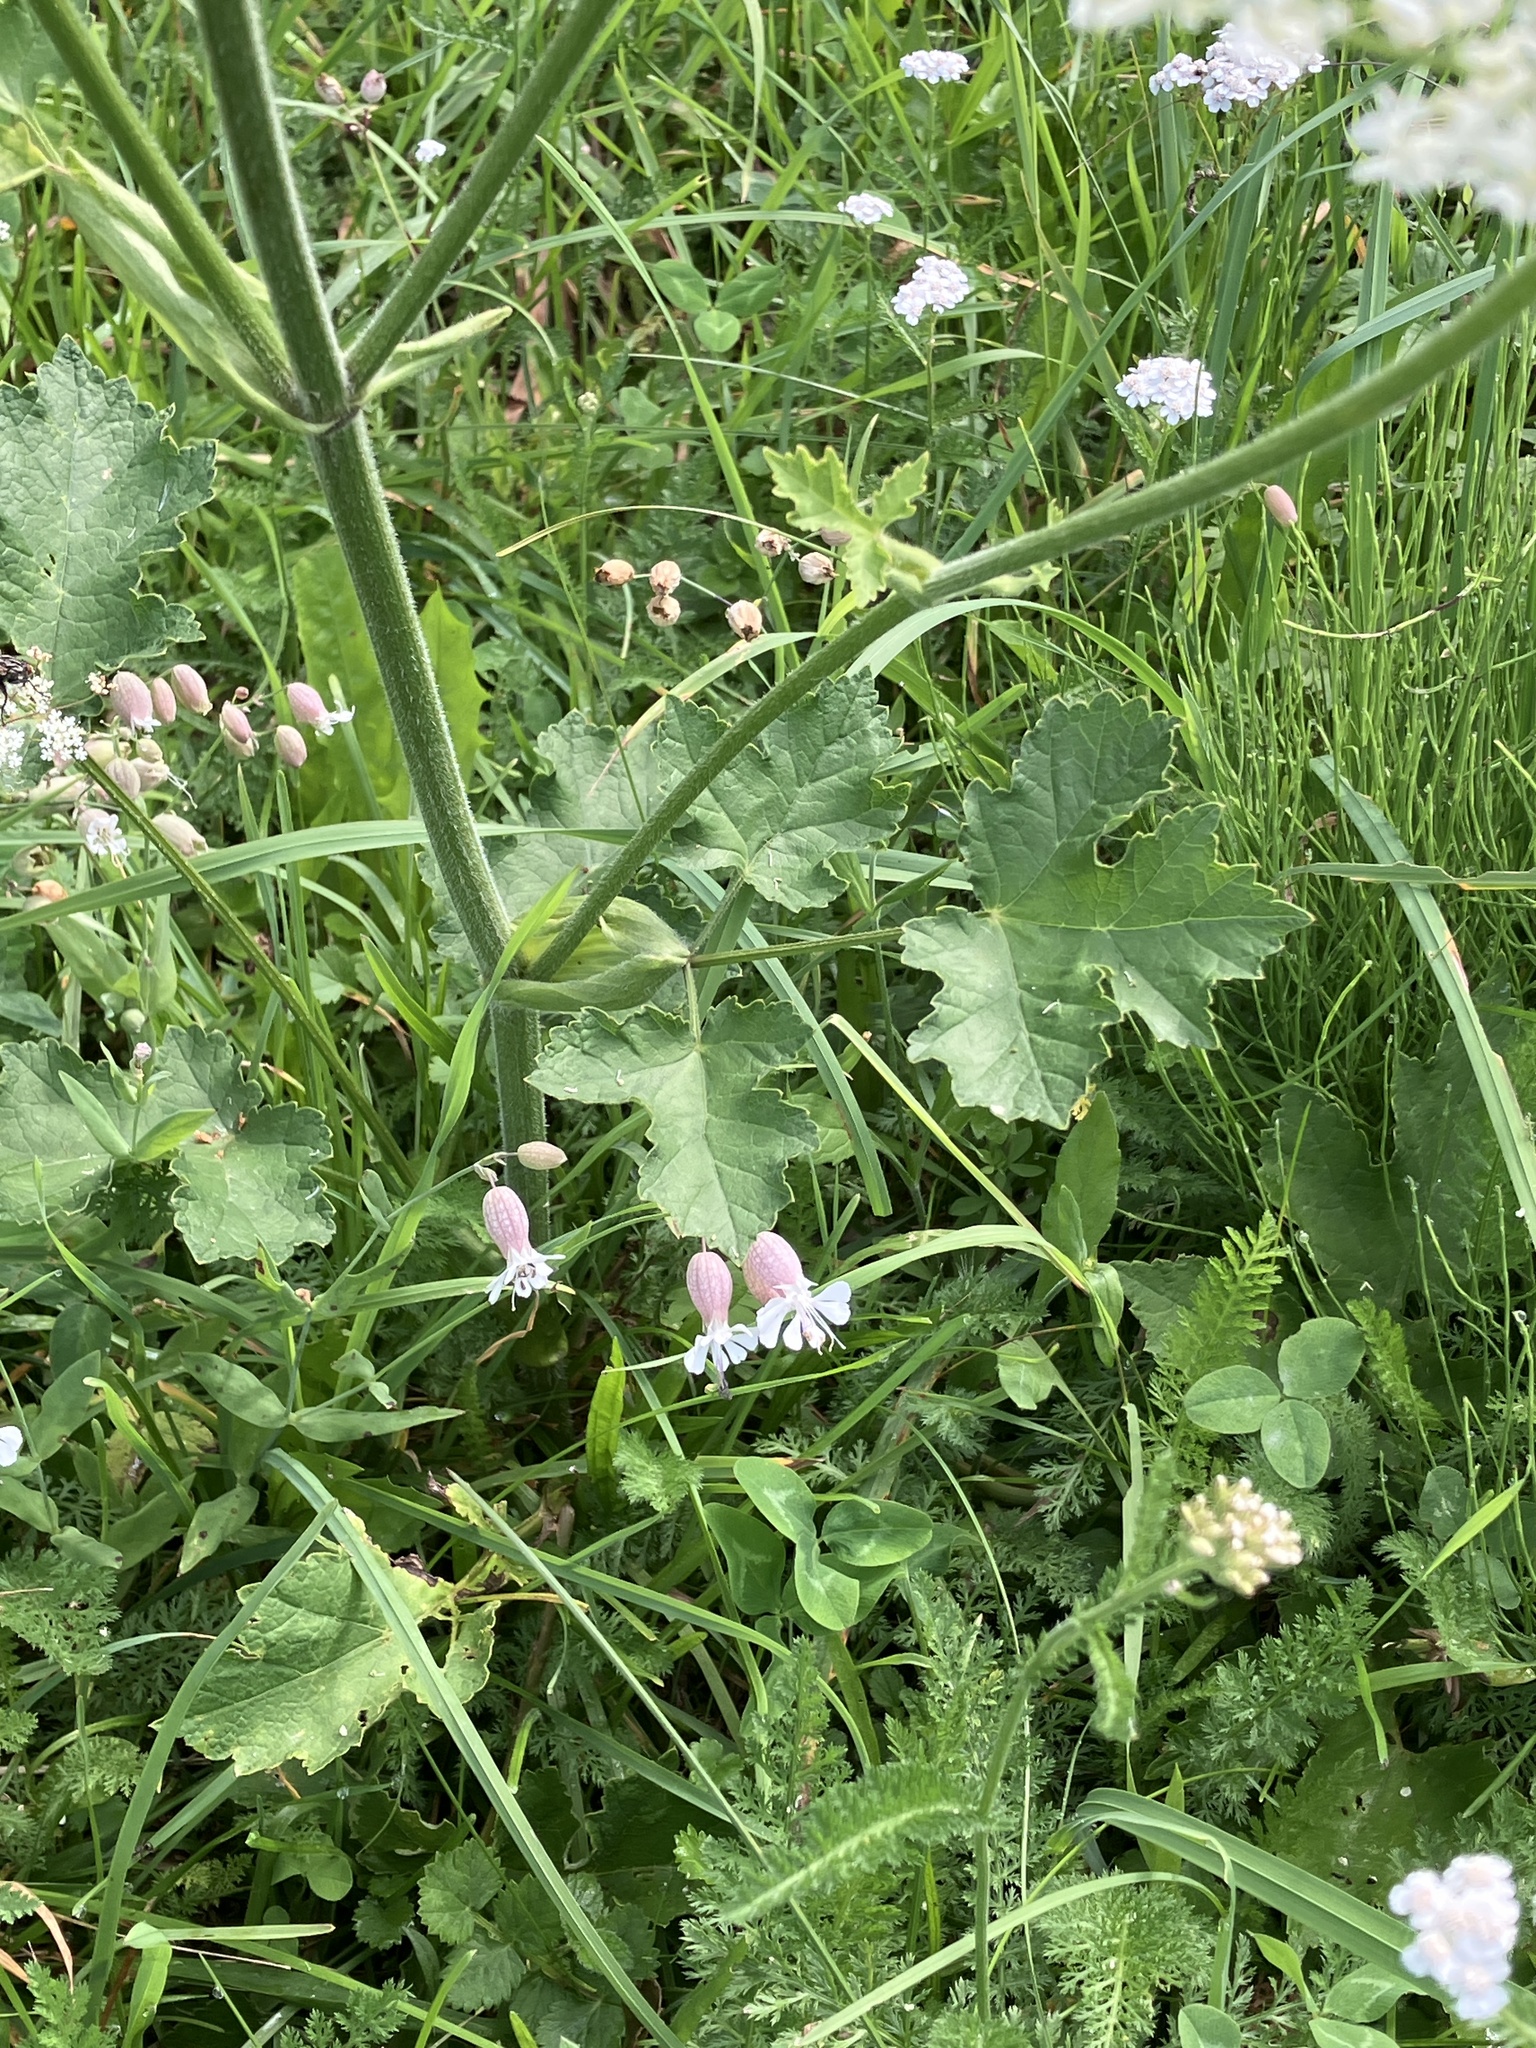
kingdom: Plantae
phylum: Tracheophyta
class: Magnoliopsida
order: Apiales
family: Apiaceae
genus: Heracleum
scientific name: Heracleum sphondylium
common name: Hogweed
